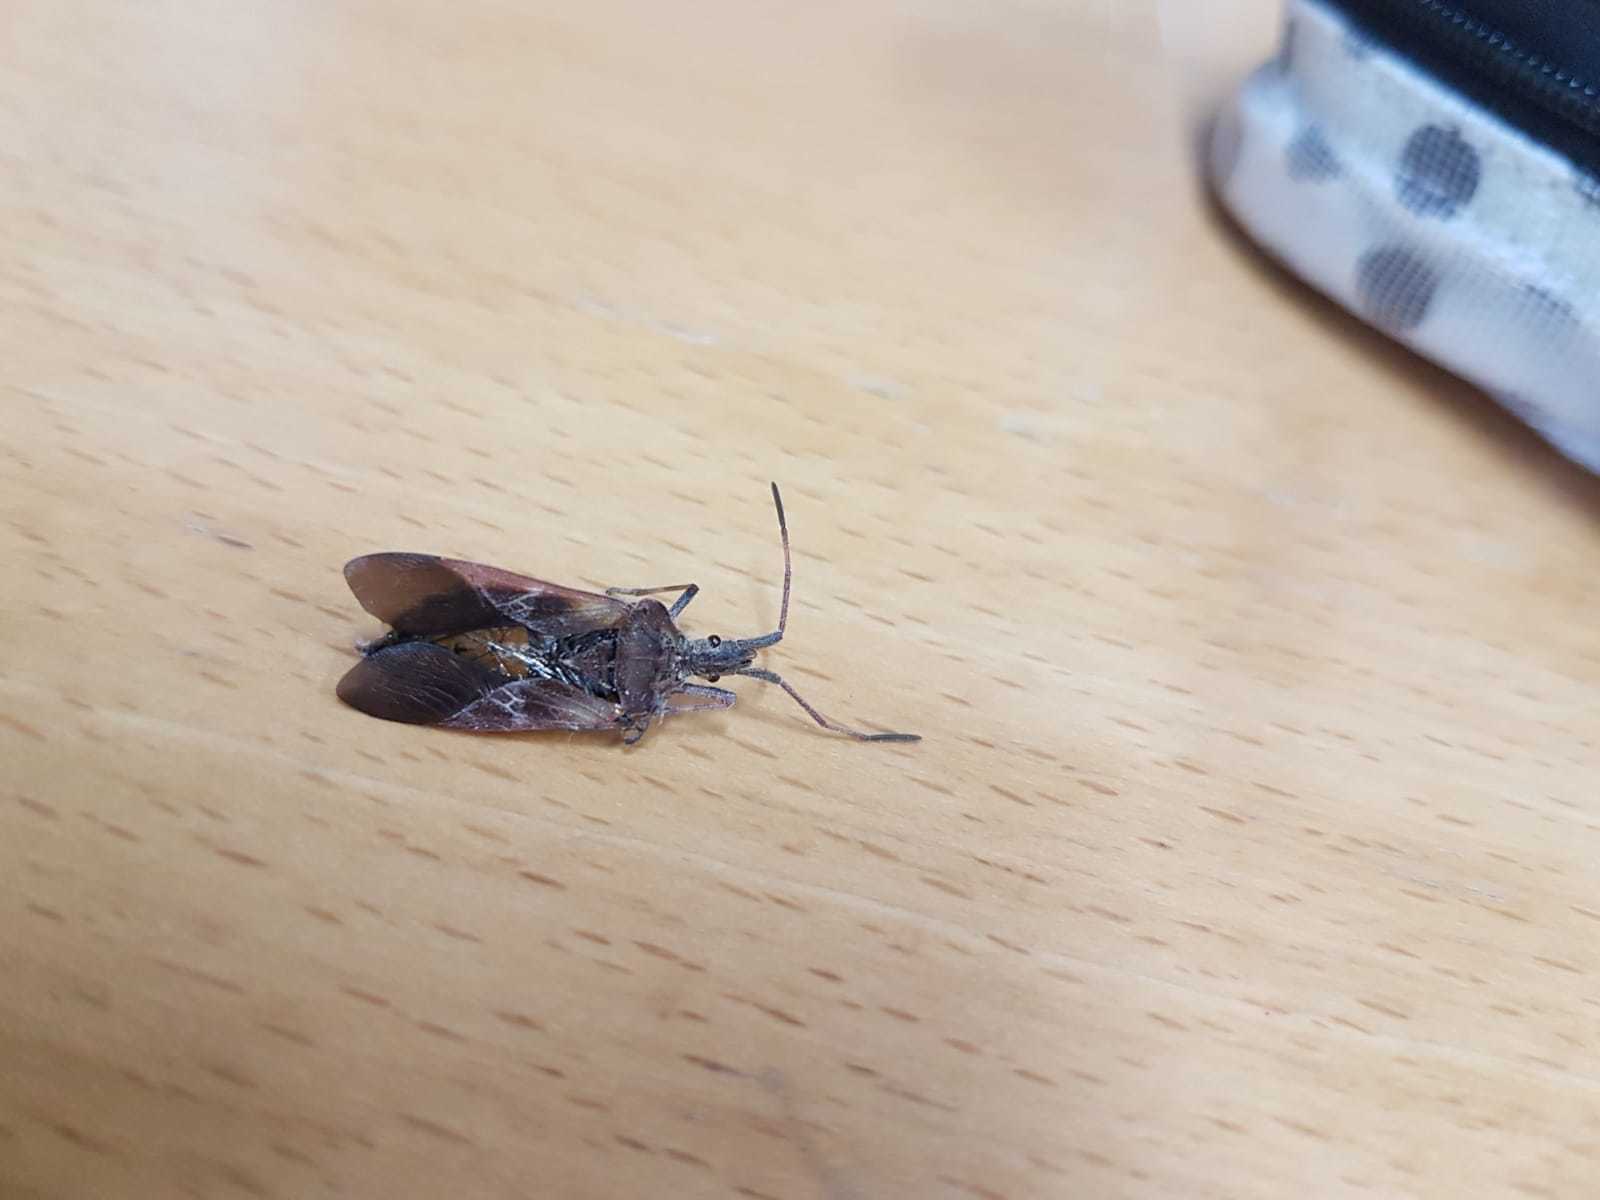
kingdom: Animalia
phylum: Arthropoda
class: Insecta
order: Hemiptera
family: Coreidae
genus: Leptoglossus
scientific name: Leptoglossus occidentalis
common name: Western conifer-seed bug
